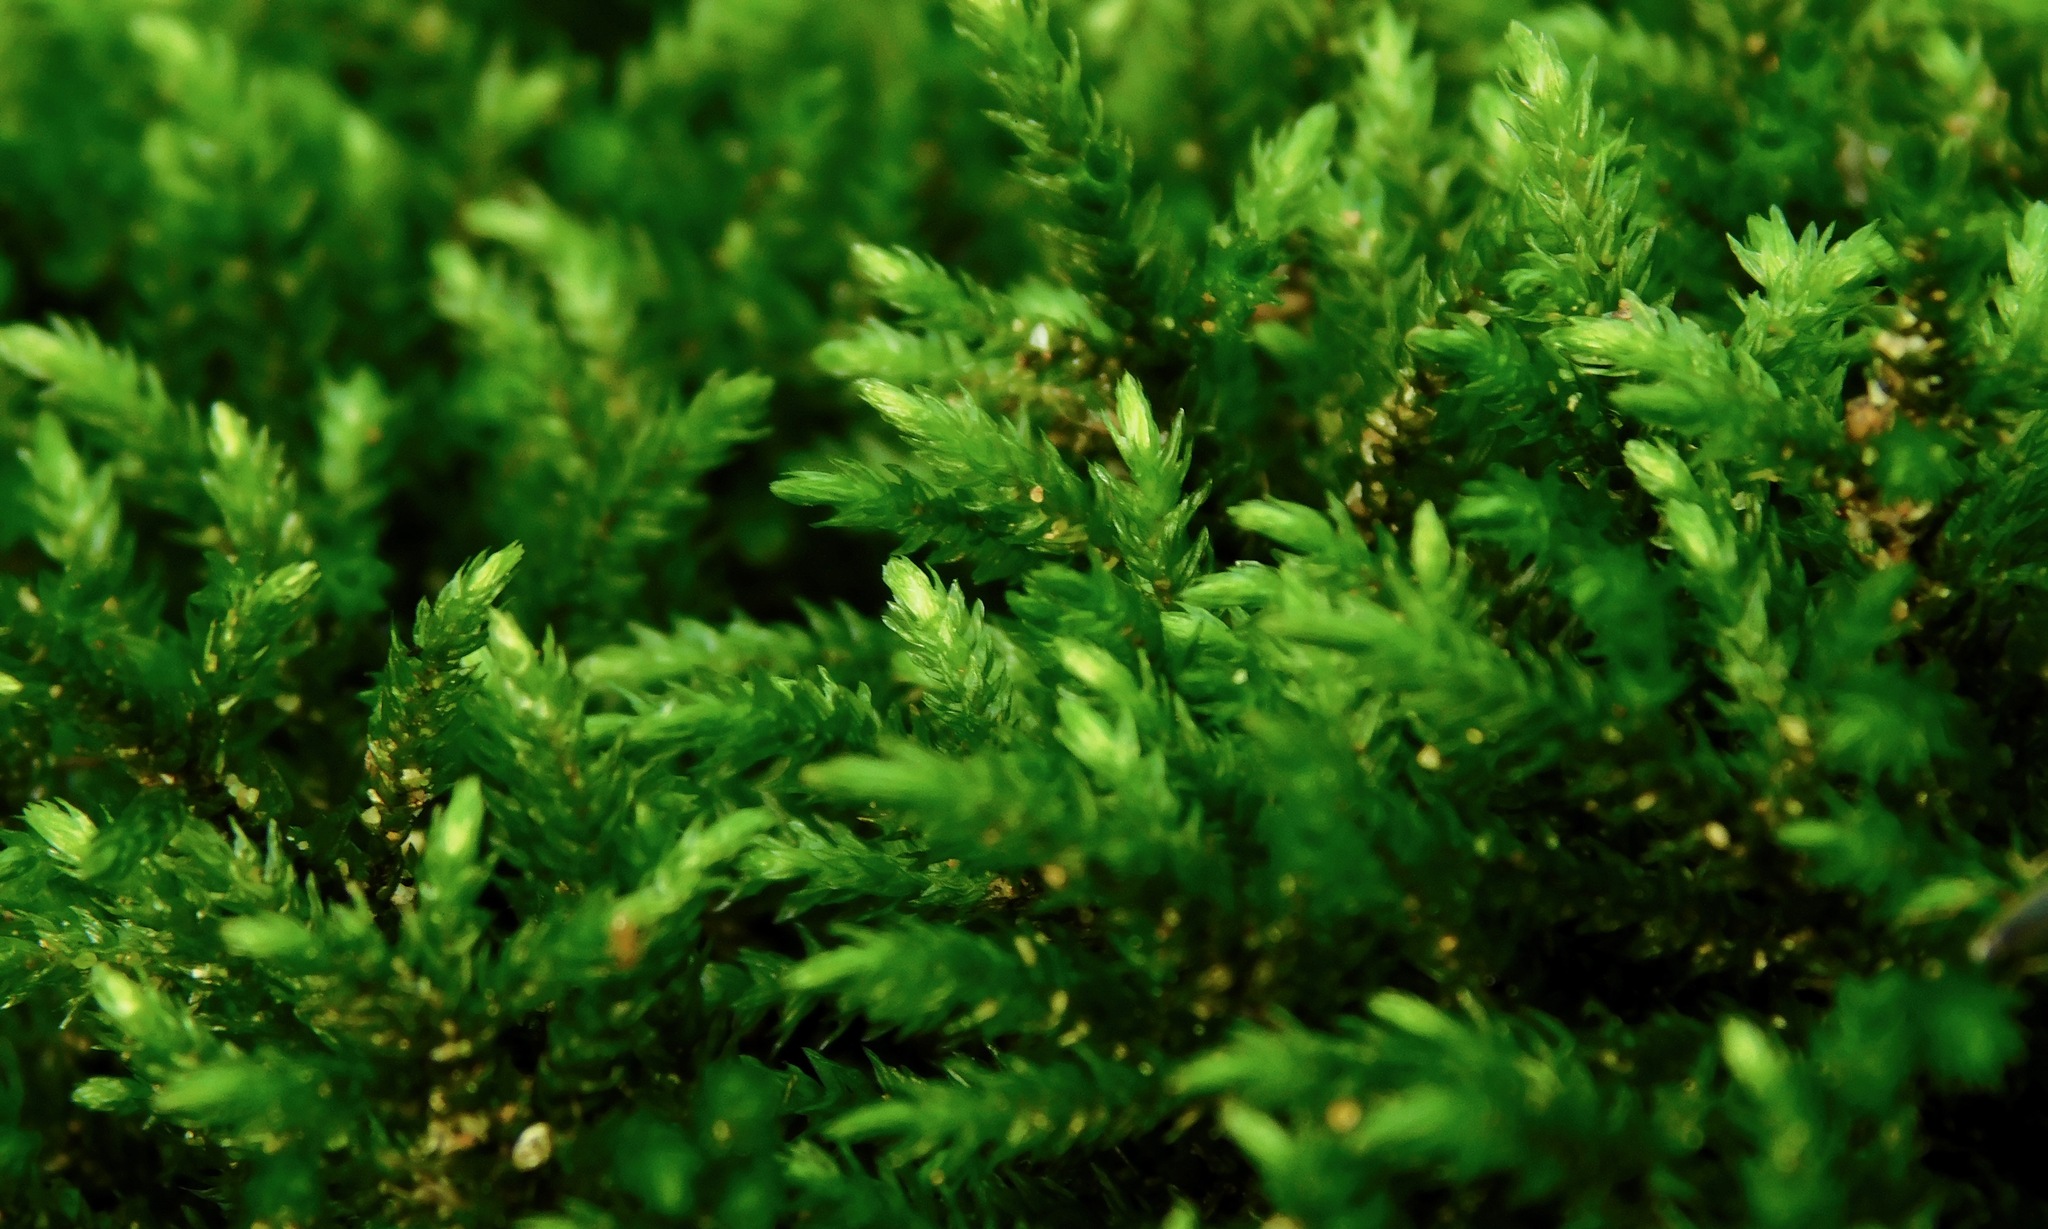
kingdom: Plantae
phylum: Bryophyta
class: Bryopsida
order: Hypnales
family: Brachytheciaceae
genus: Brachythecium
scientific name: Brachythecium rivulare
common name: River ragged moss
